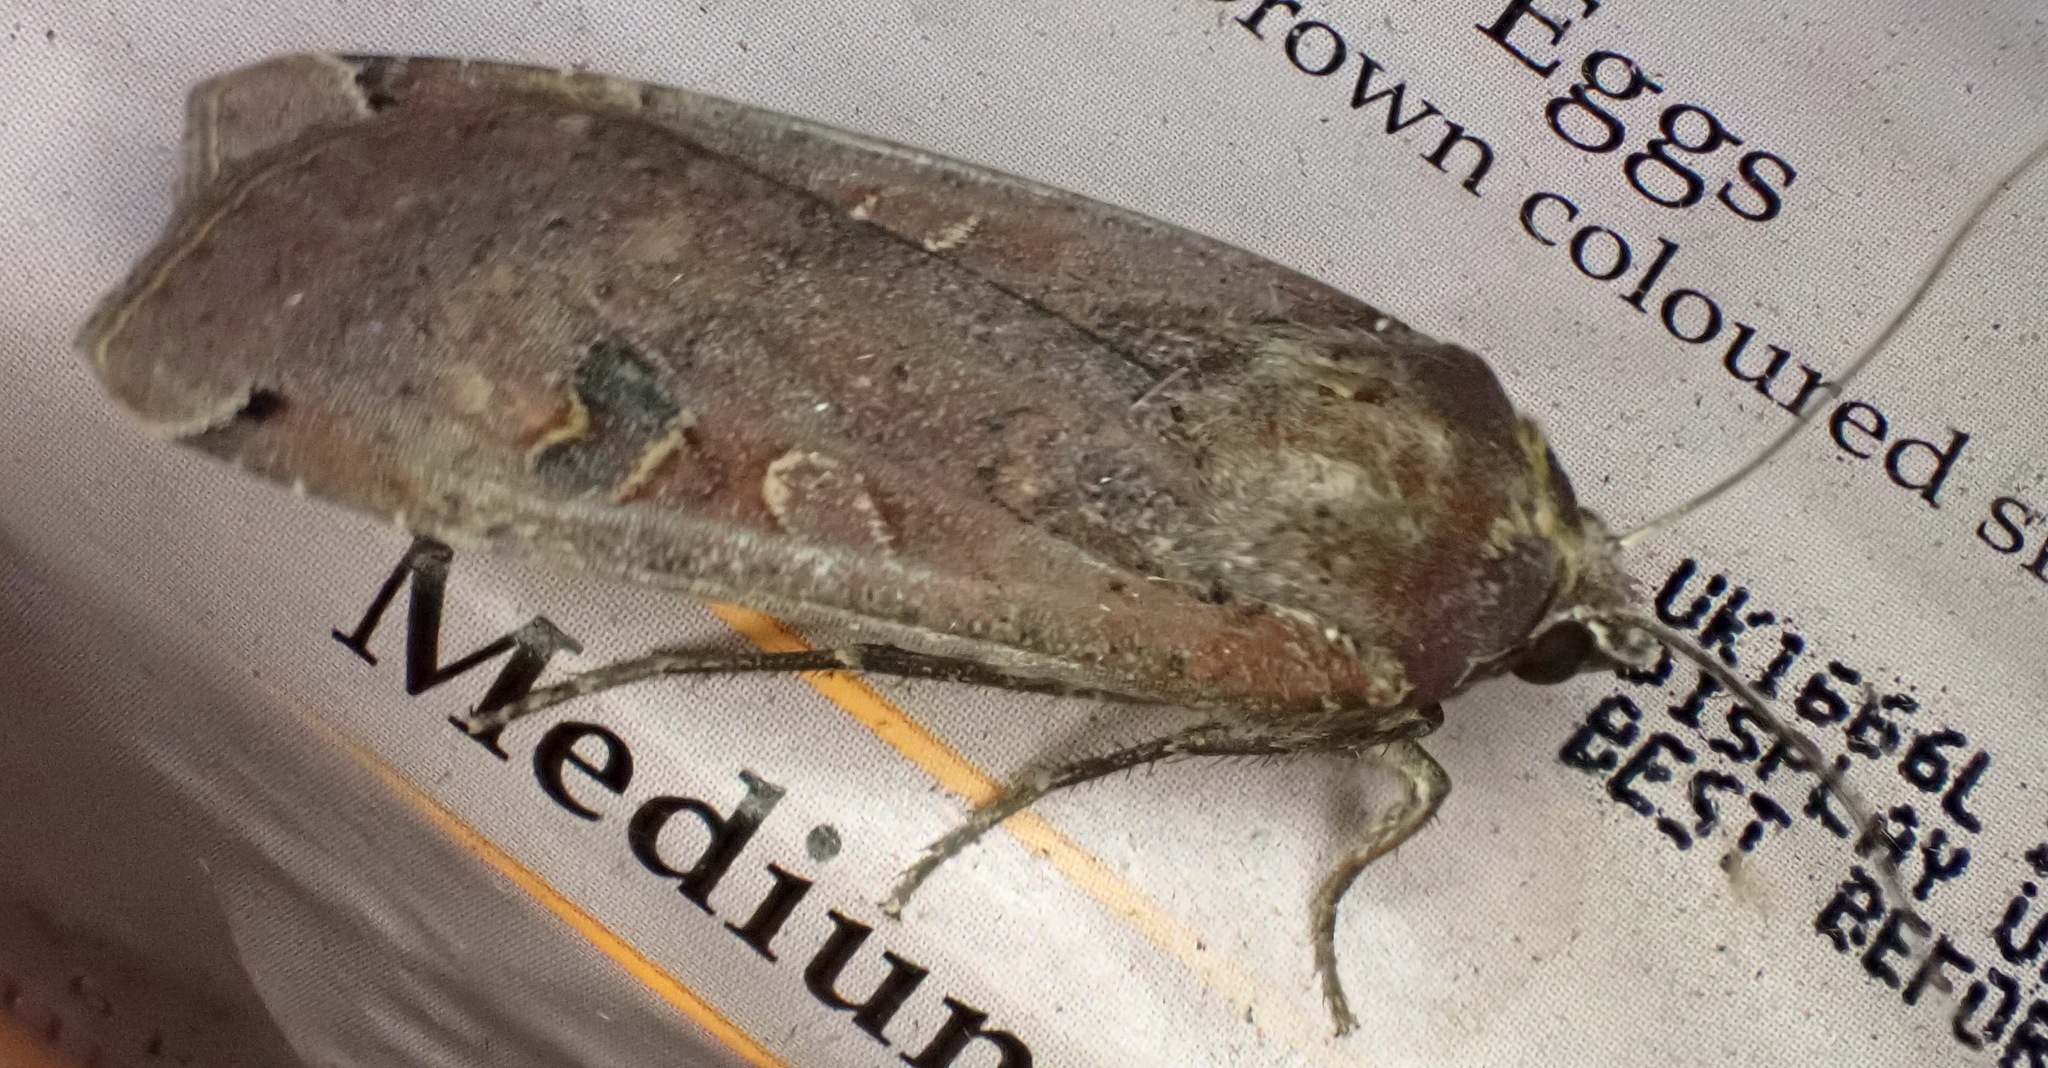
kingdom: Animalia
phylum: Arthropoda
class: Insecta
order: Lepidoptera
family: Noctuidae
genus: Noctua
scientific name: Noctua pronuba
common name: Large yellow underwing
